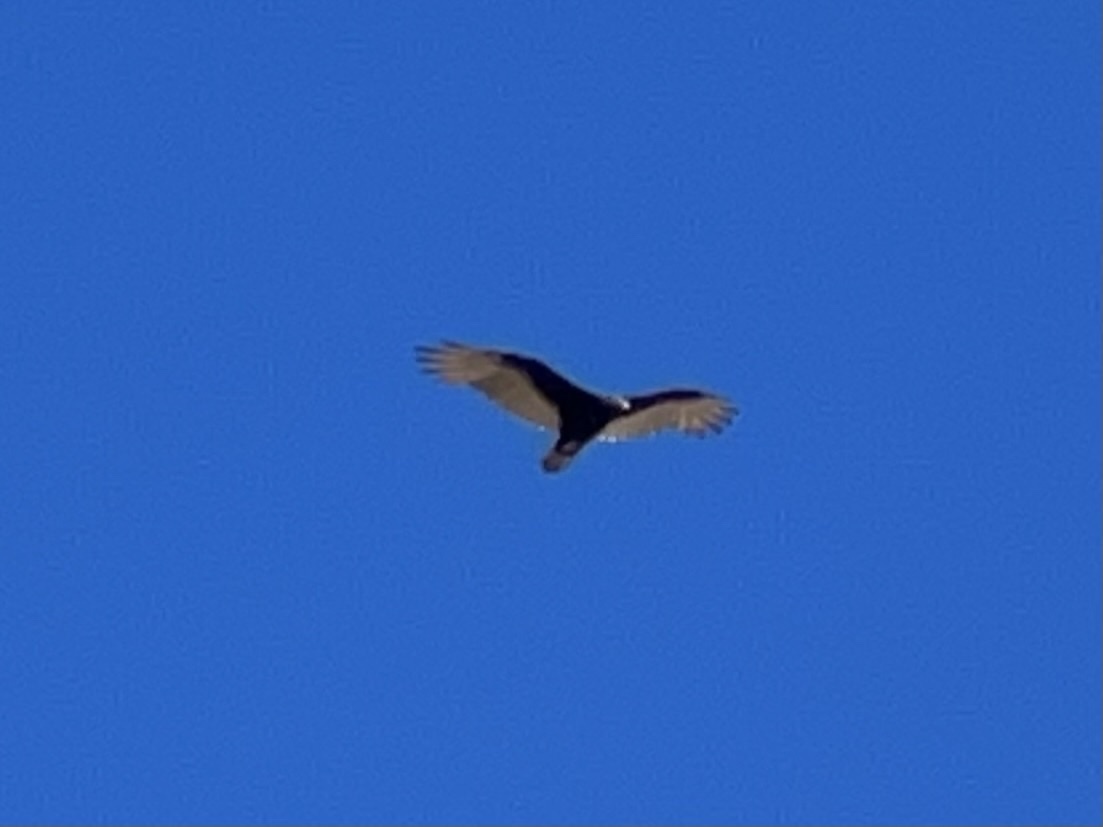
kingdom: Animalia
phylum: Chordata
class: Aves
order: Accipitriformes
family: Cathartidae
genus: Cathartes
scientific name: Cathartes aura
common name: Turkey vulture
